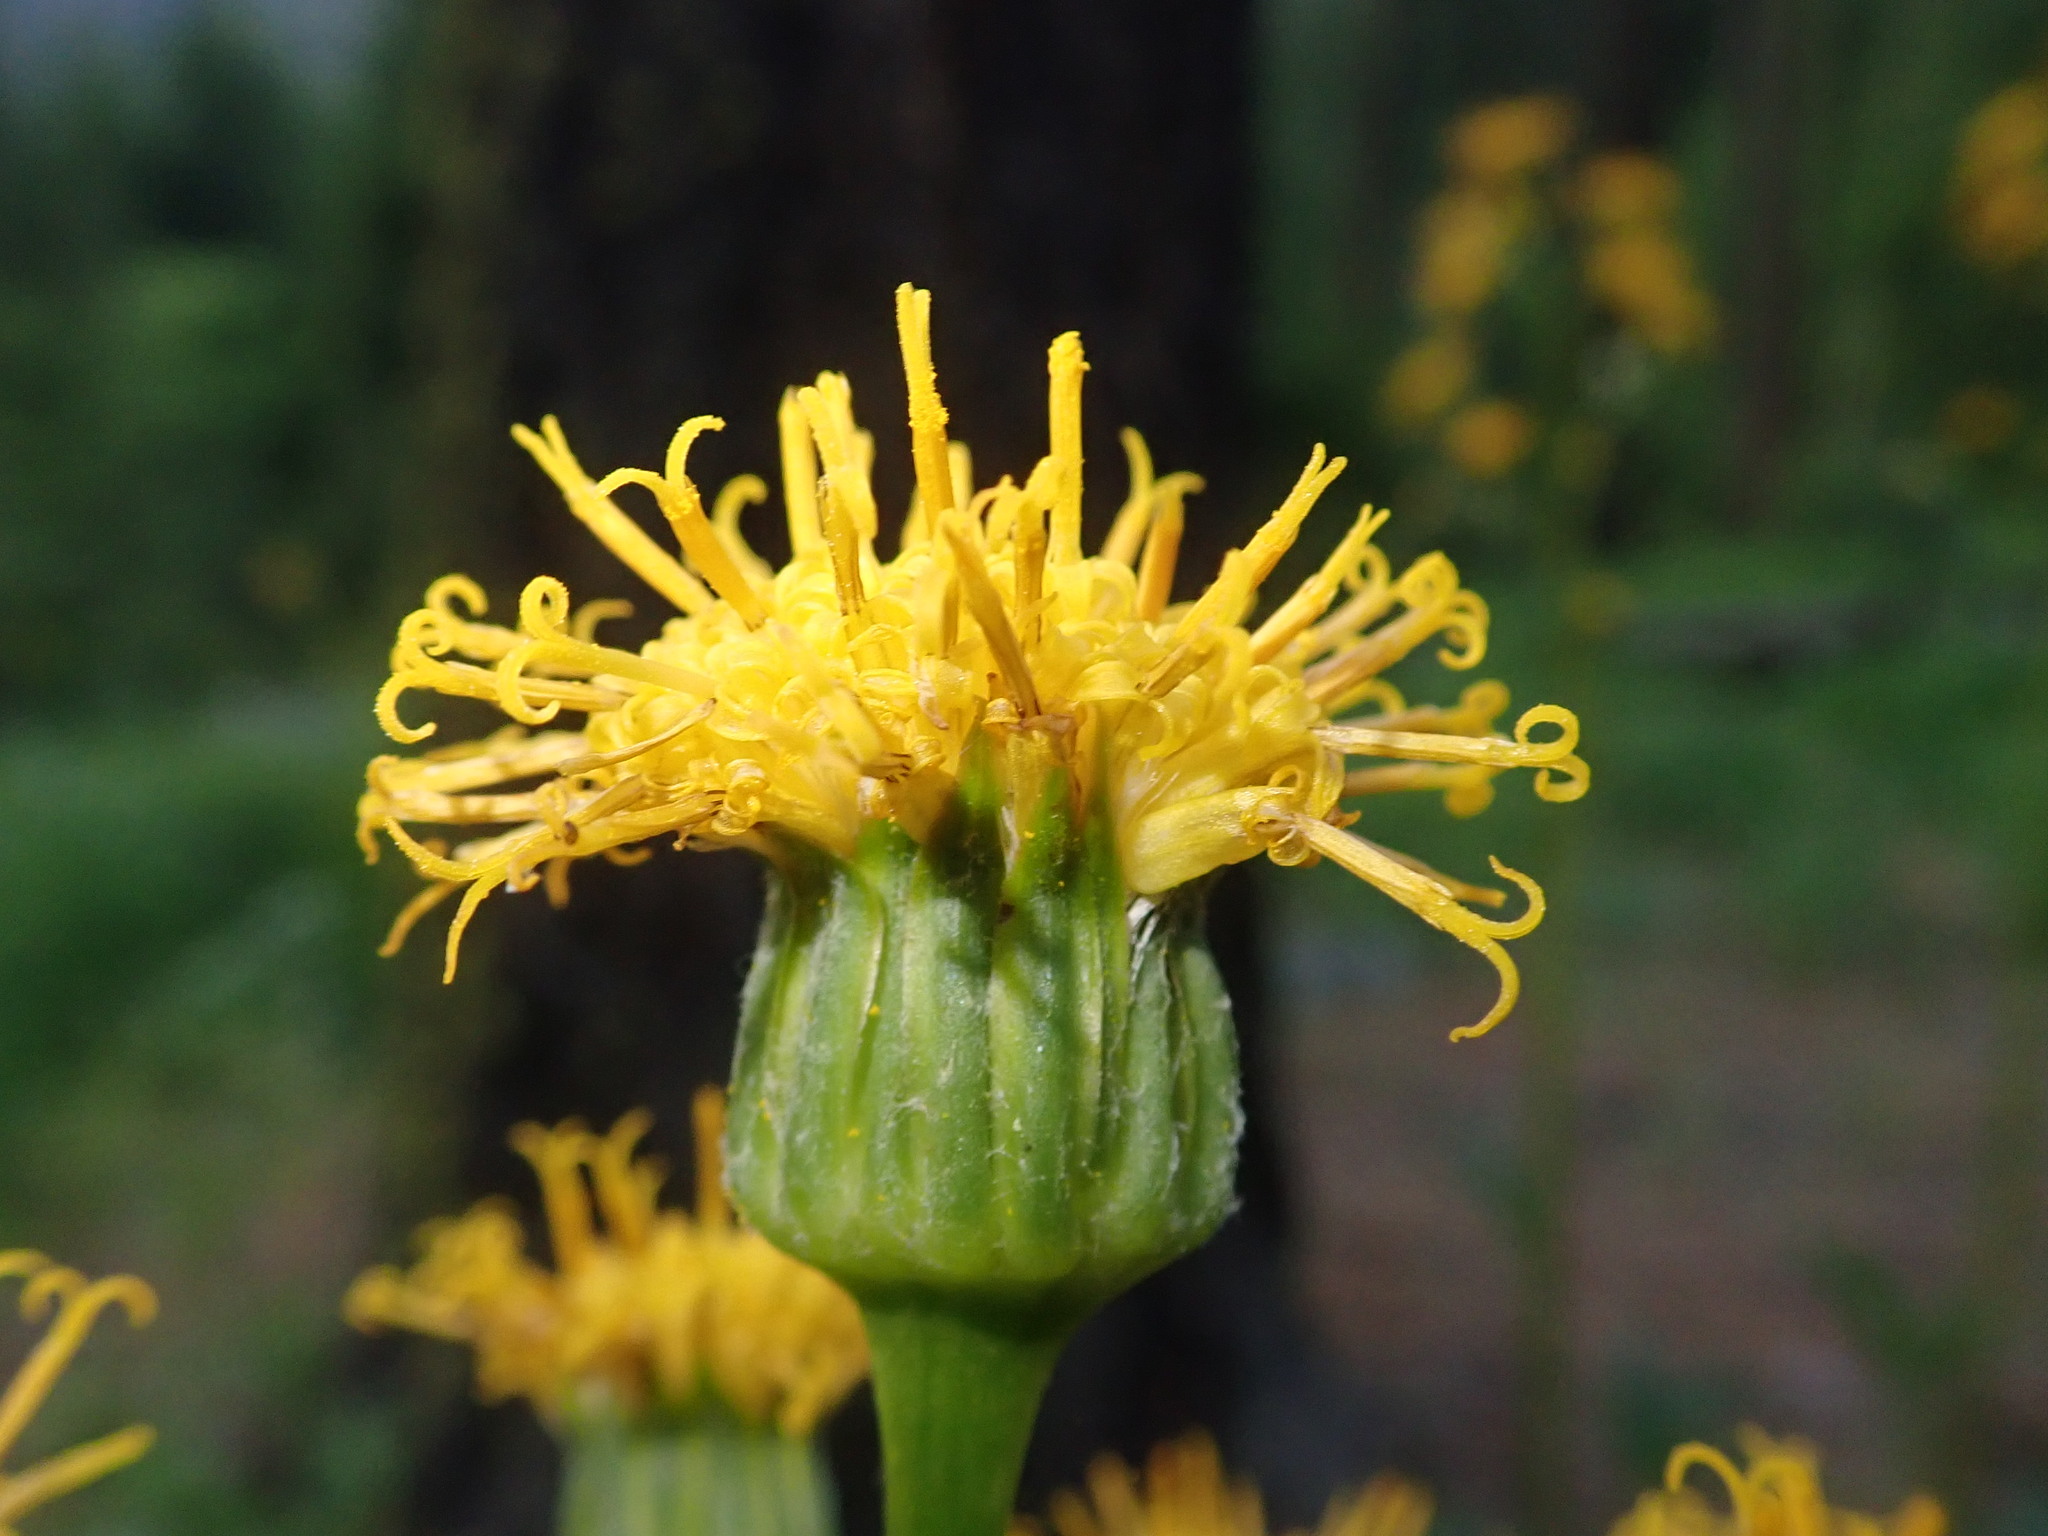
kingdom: Plantae
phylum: Tracheophyta
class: Magnoliopsida
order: Asterales
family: Asteraceae
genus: Cacaliopsis
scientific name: Cacaliopsis nardosmia
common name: Silvercrown
